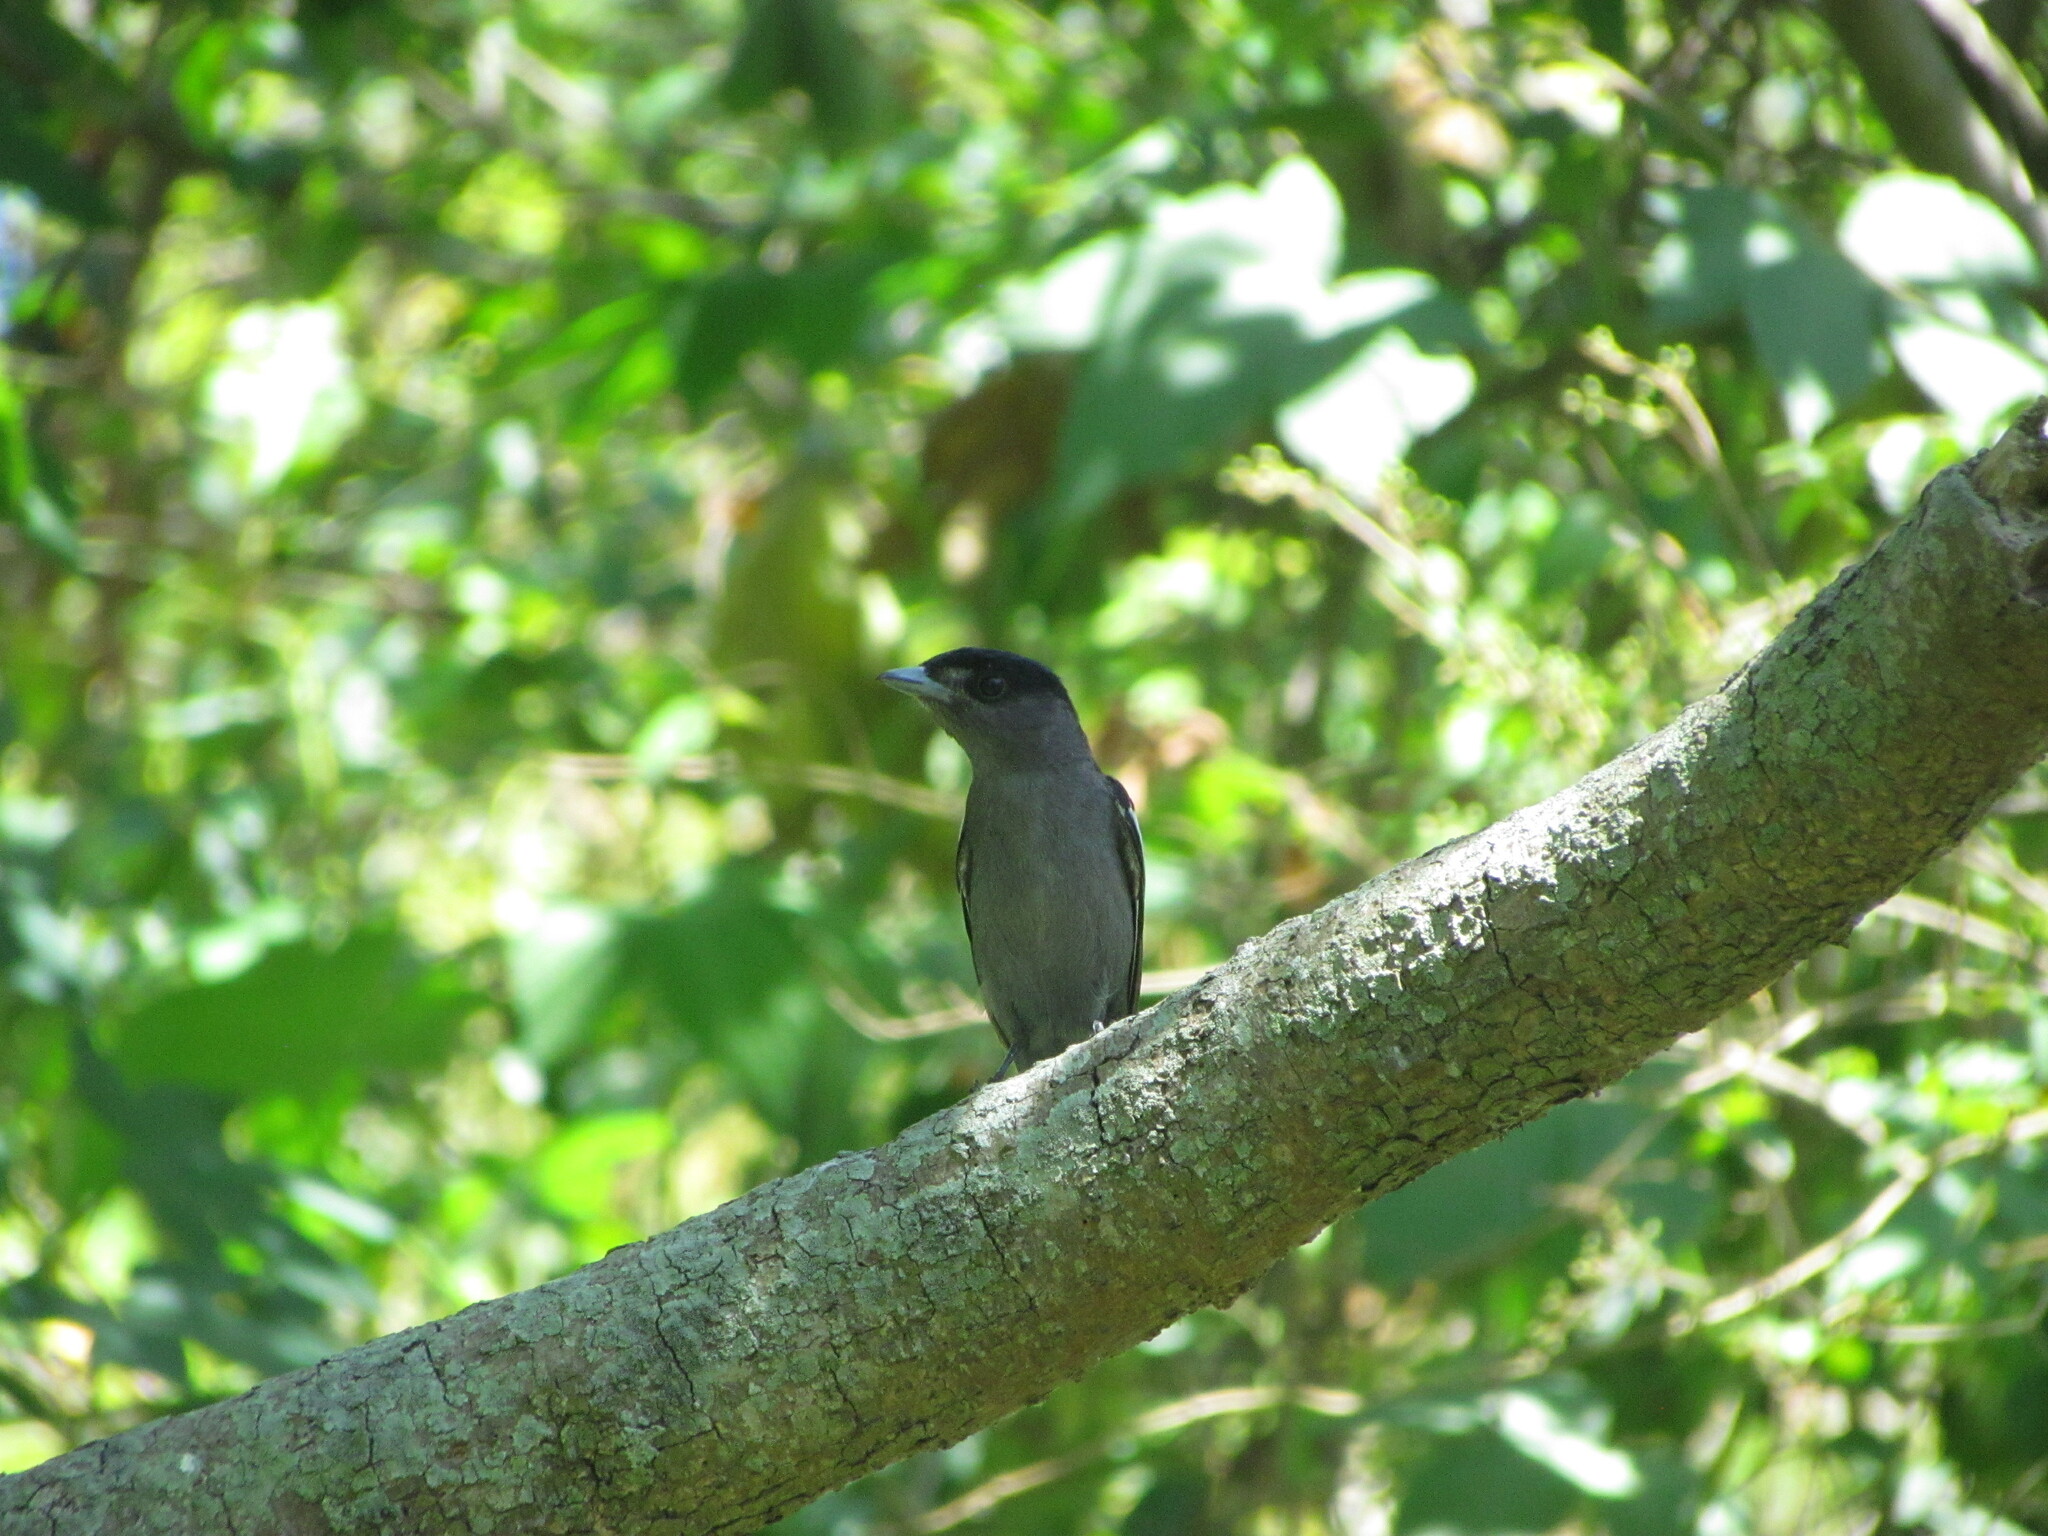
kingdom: Animalia
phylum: Chordata
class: Aves
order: Passeriformes
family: Cotingidae
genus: Pachyramphus
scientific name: Pachyramphus polychopterus
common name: White-winged becard
